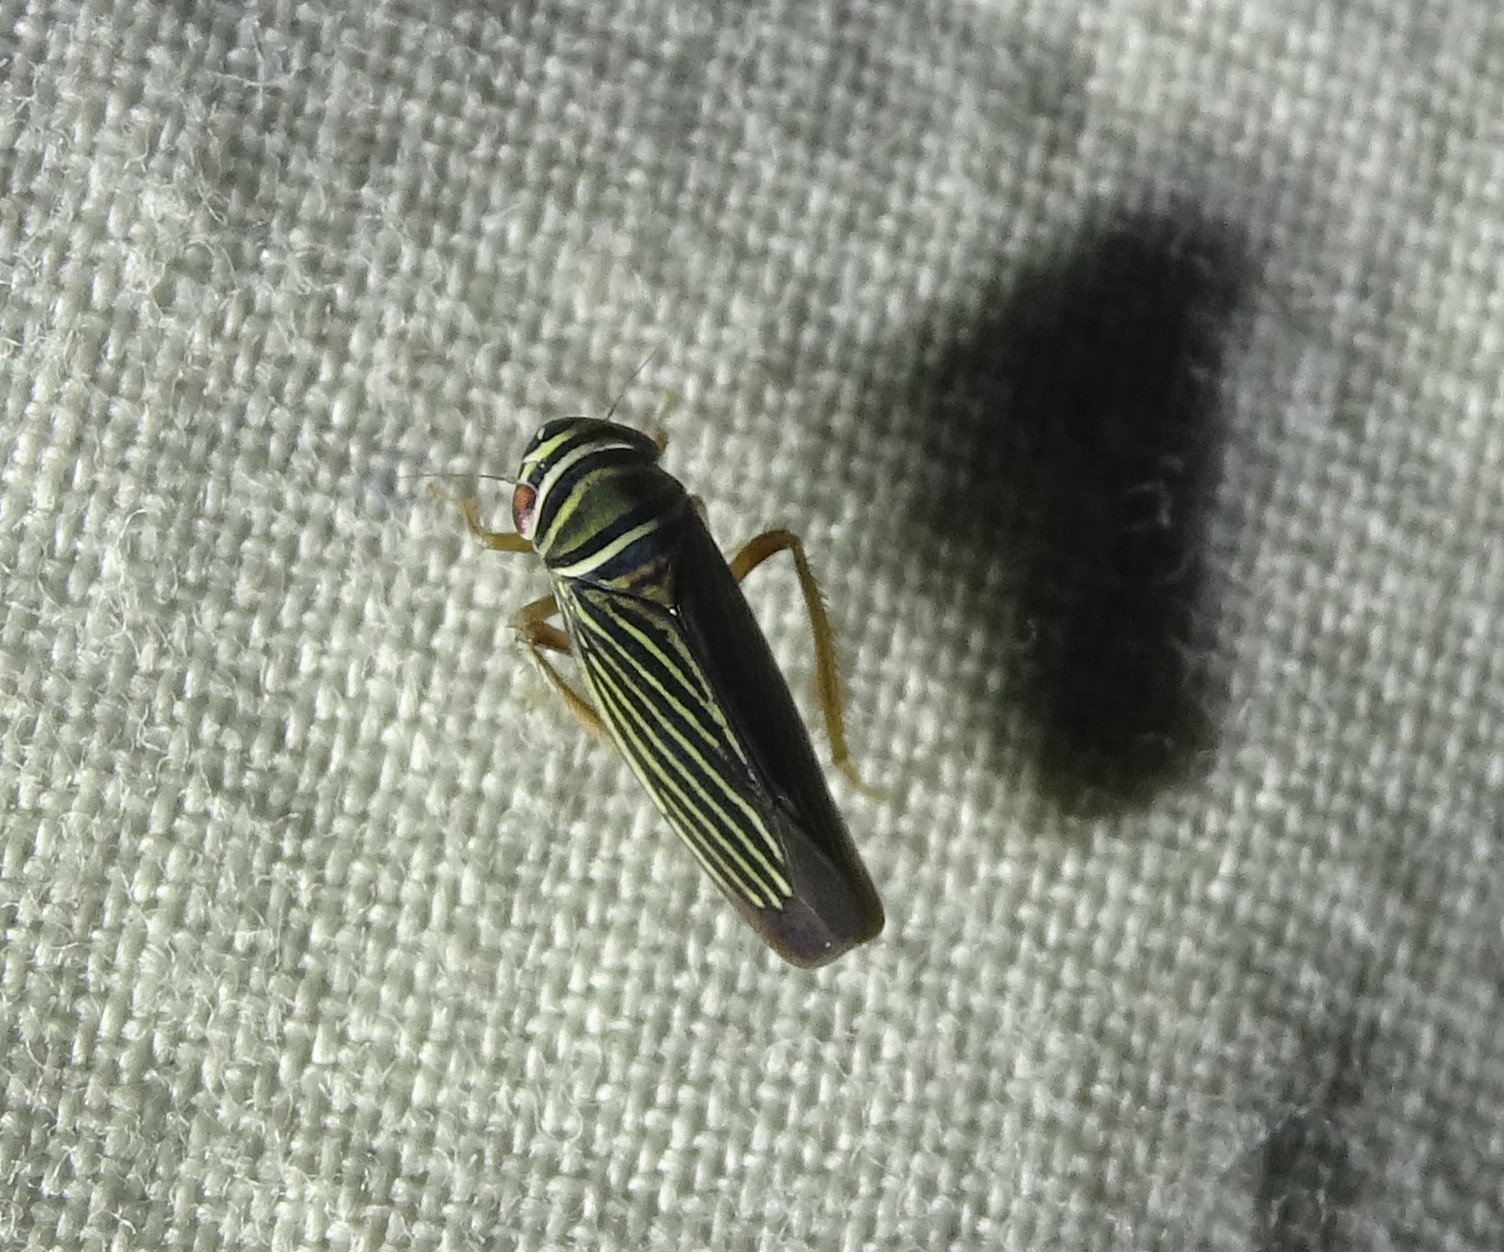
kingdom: Animalia
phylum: Arthropoda
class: Insecta
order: Hemiptera
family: Cicadellidae
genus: Tylozygus
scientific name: Tylozygus bifidus
